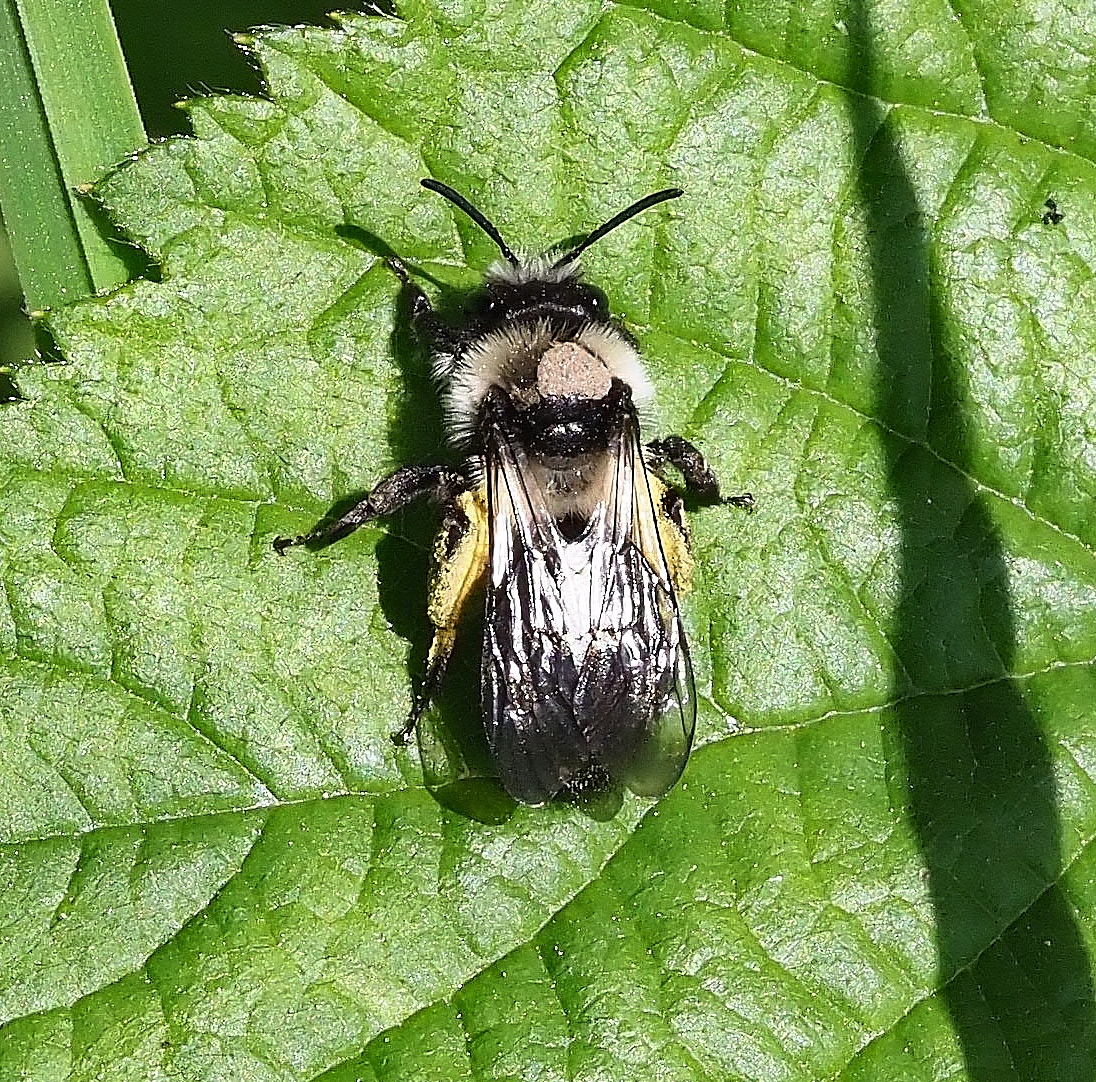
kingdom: Animalia
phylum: Arthropoda
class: Insecta
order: Hymenoptera
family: Andrenidae
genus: Andrena
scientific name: Andrena cineraria
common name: Ashy mining bee
